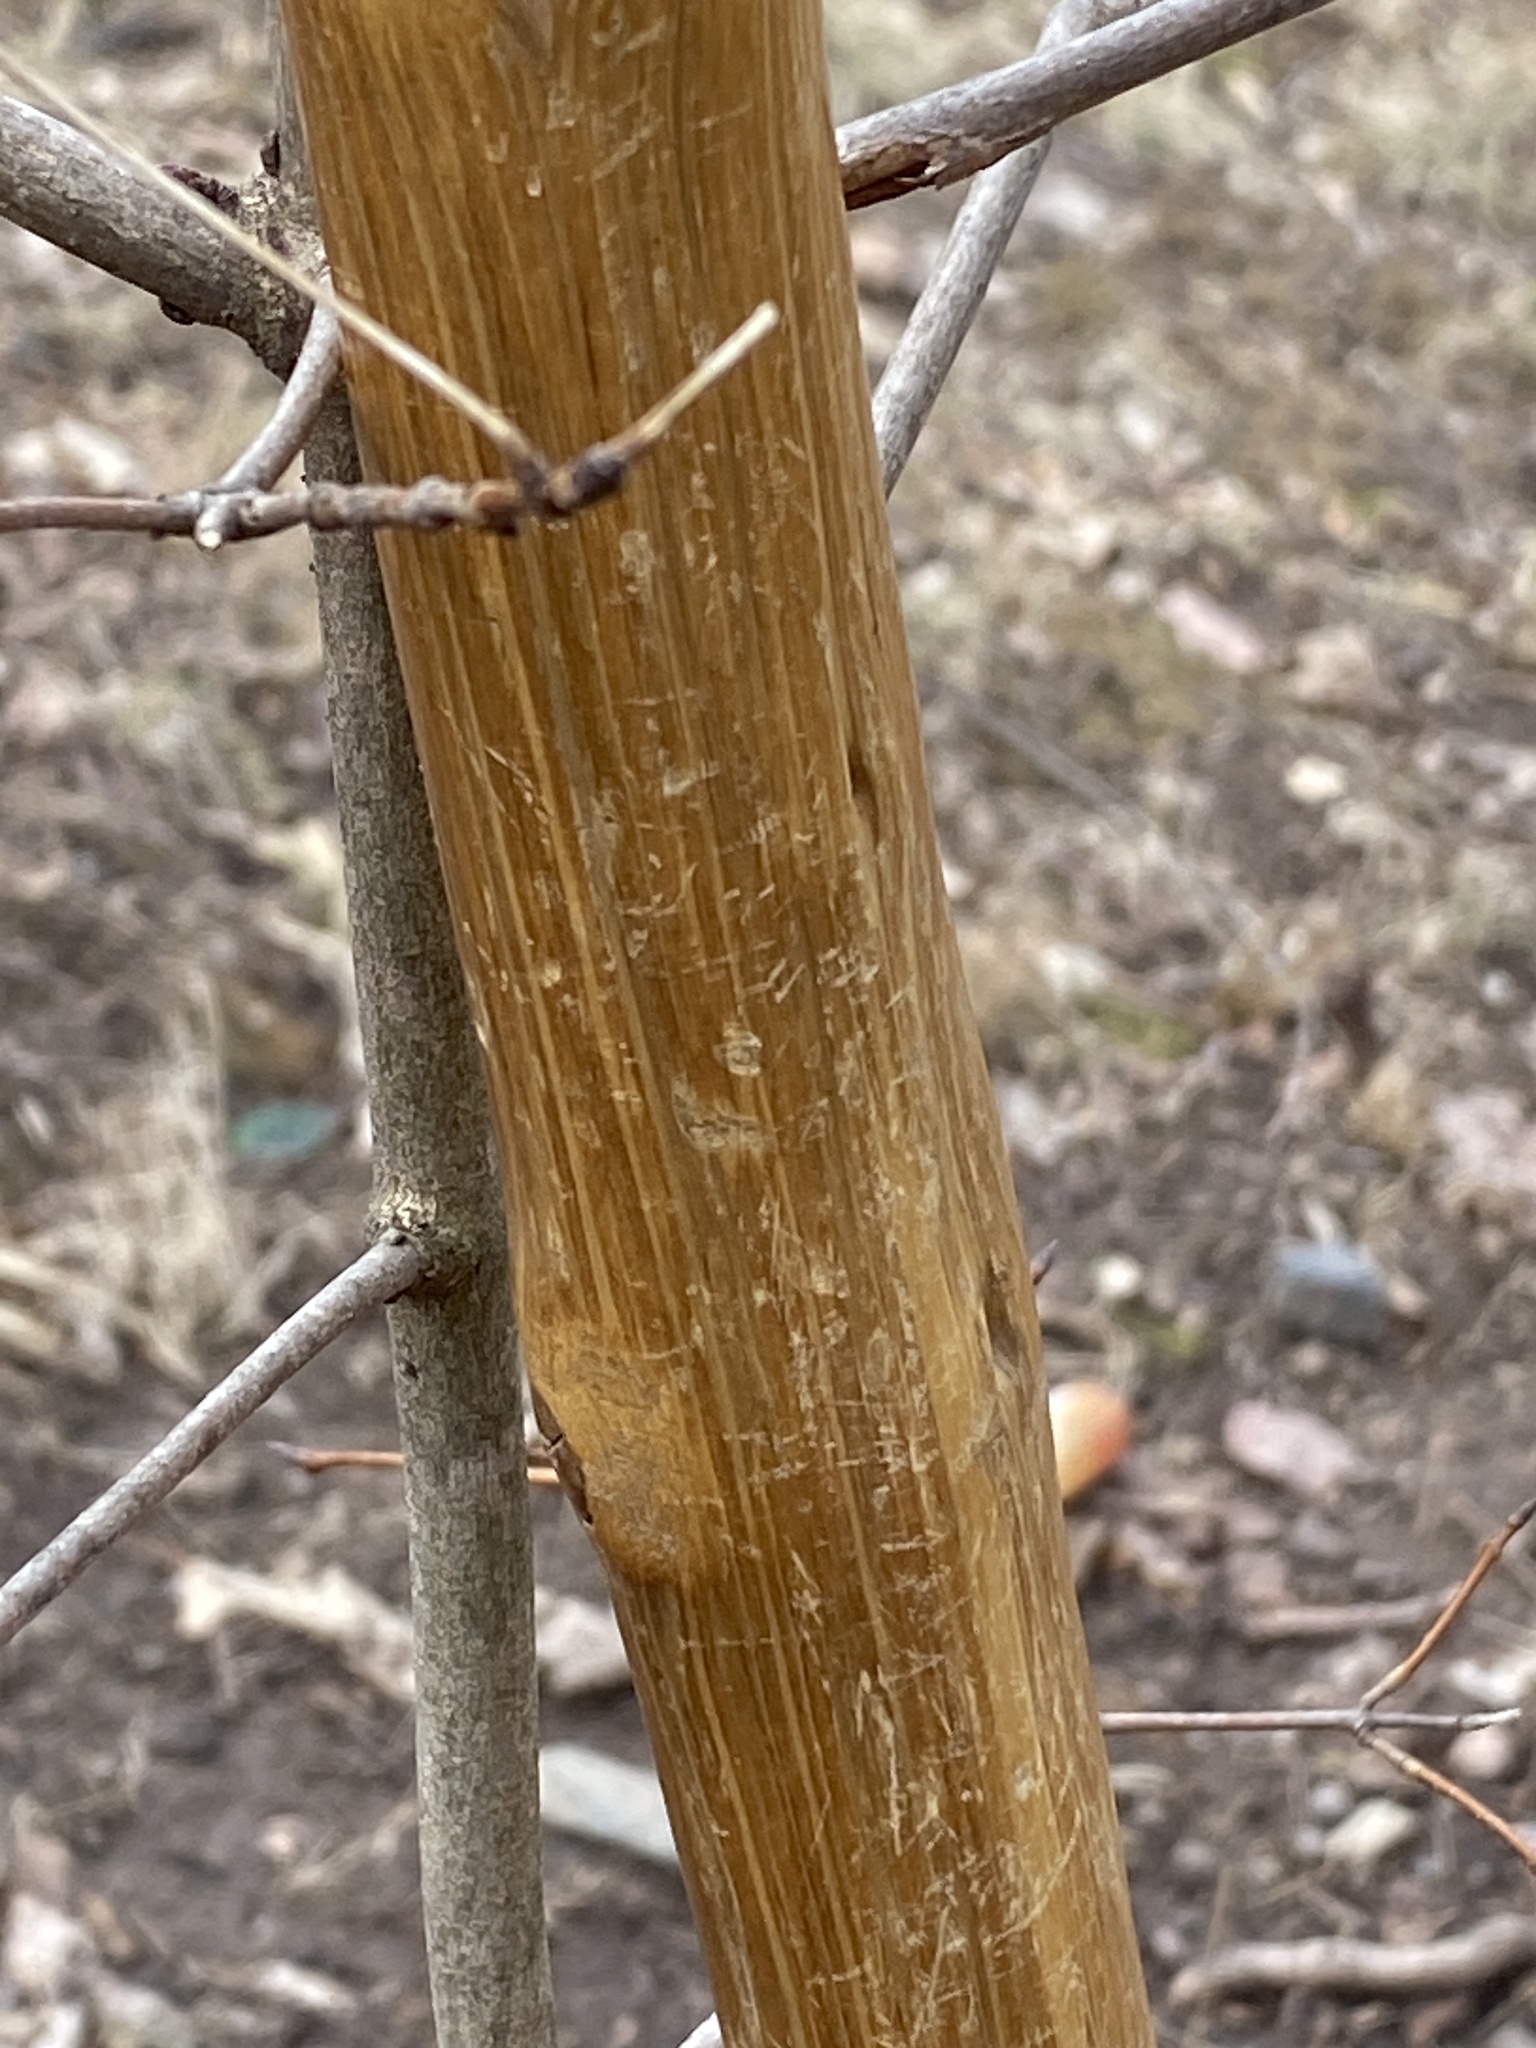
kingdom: Plantae
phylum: Tracheophyta
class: Magnoliopsida
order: Sapindales
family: Sapindaceae
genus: Acer
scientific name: Acer saccharum
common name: Sugar maple
